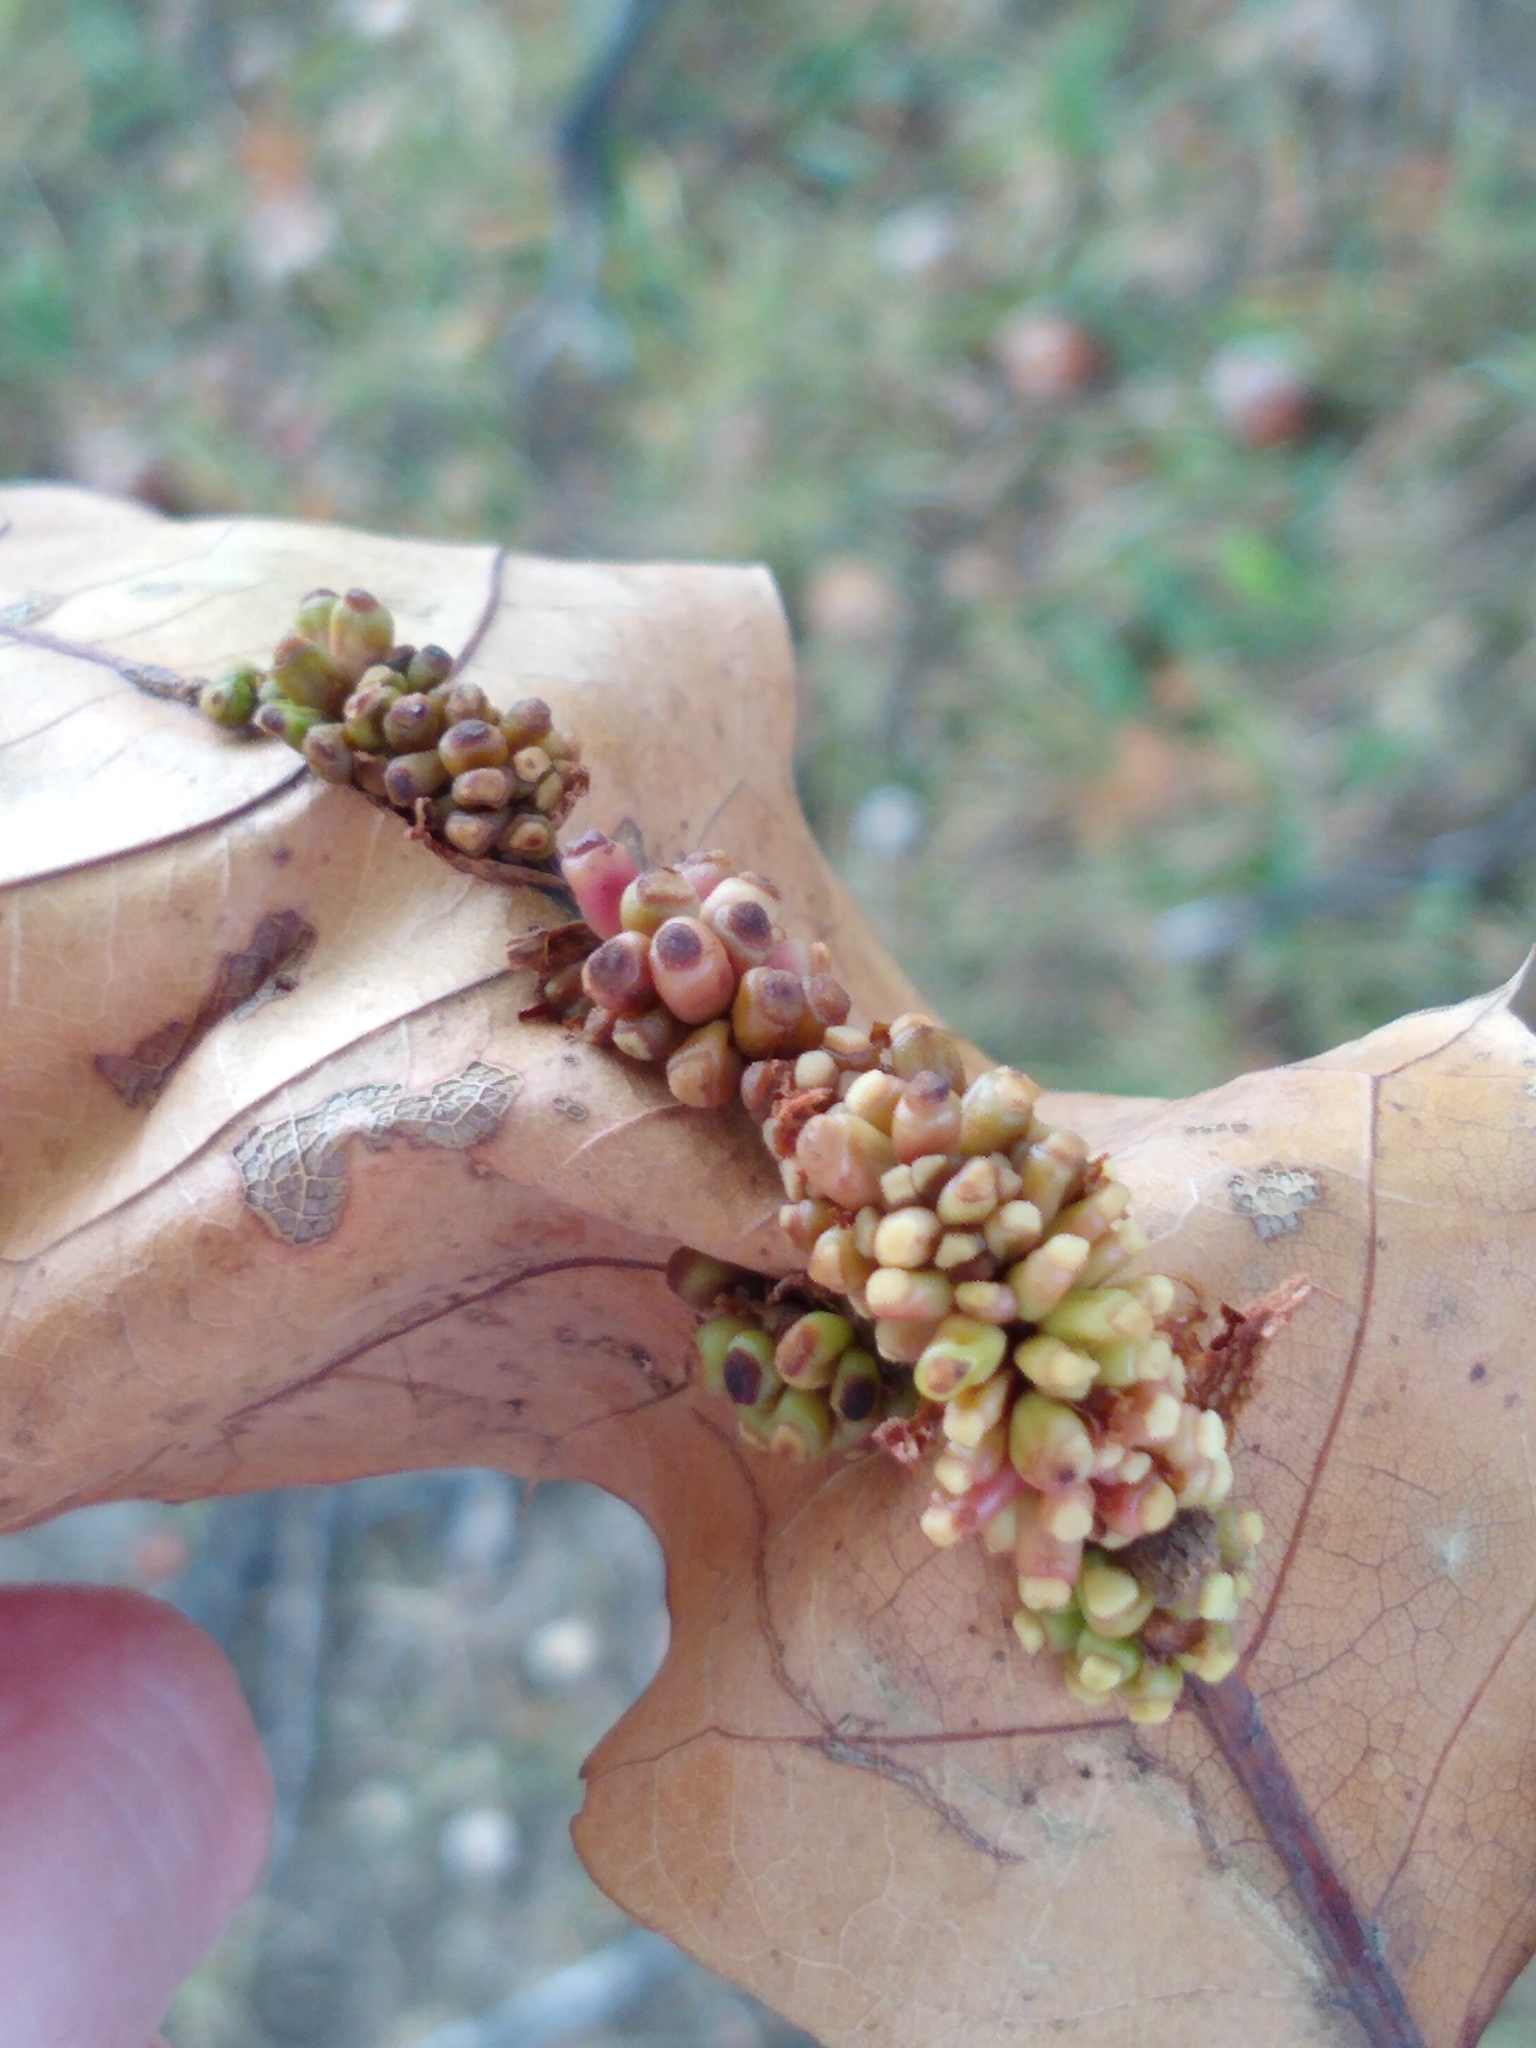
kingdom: Animalia
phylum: Arthropoda
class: Insecta
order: Hymenoptera
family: Cynipidae
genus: Kokkocynips
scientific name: Kokkocynips decidua
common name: Oak wheat gall
